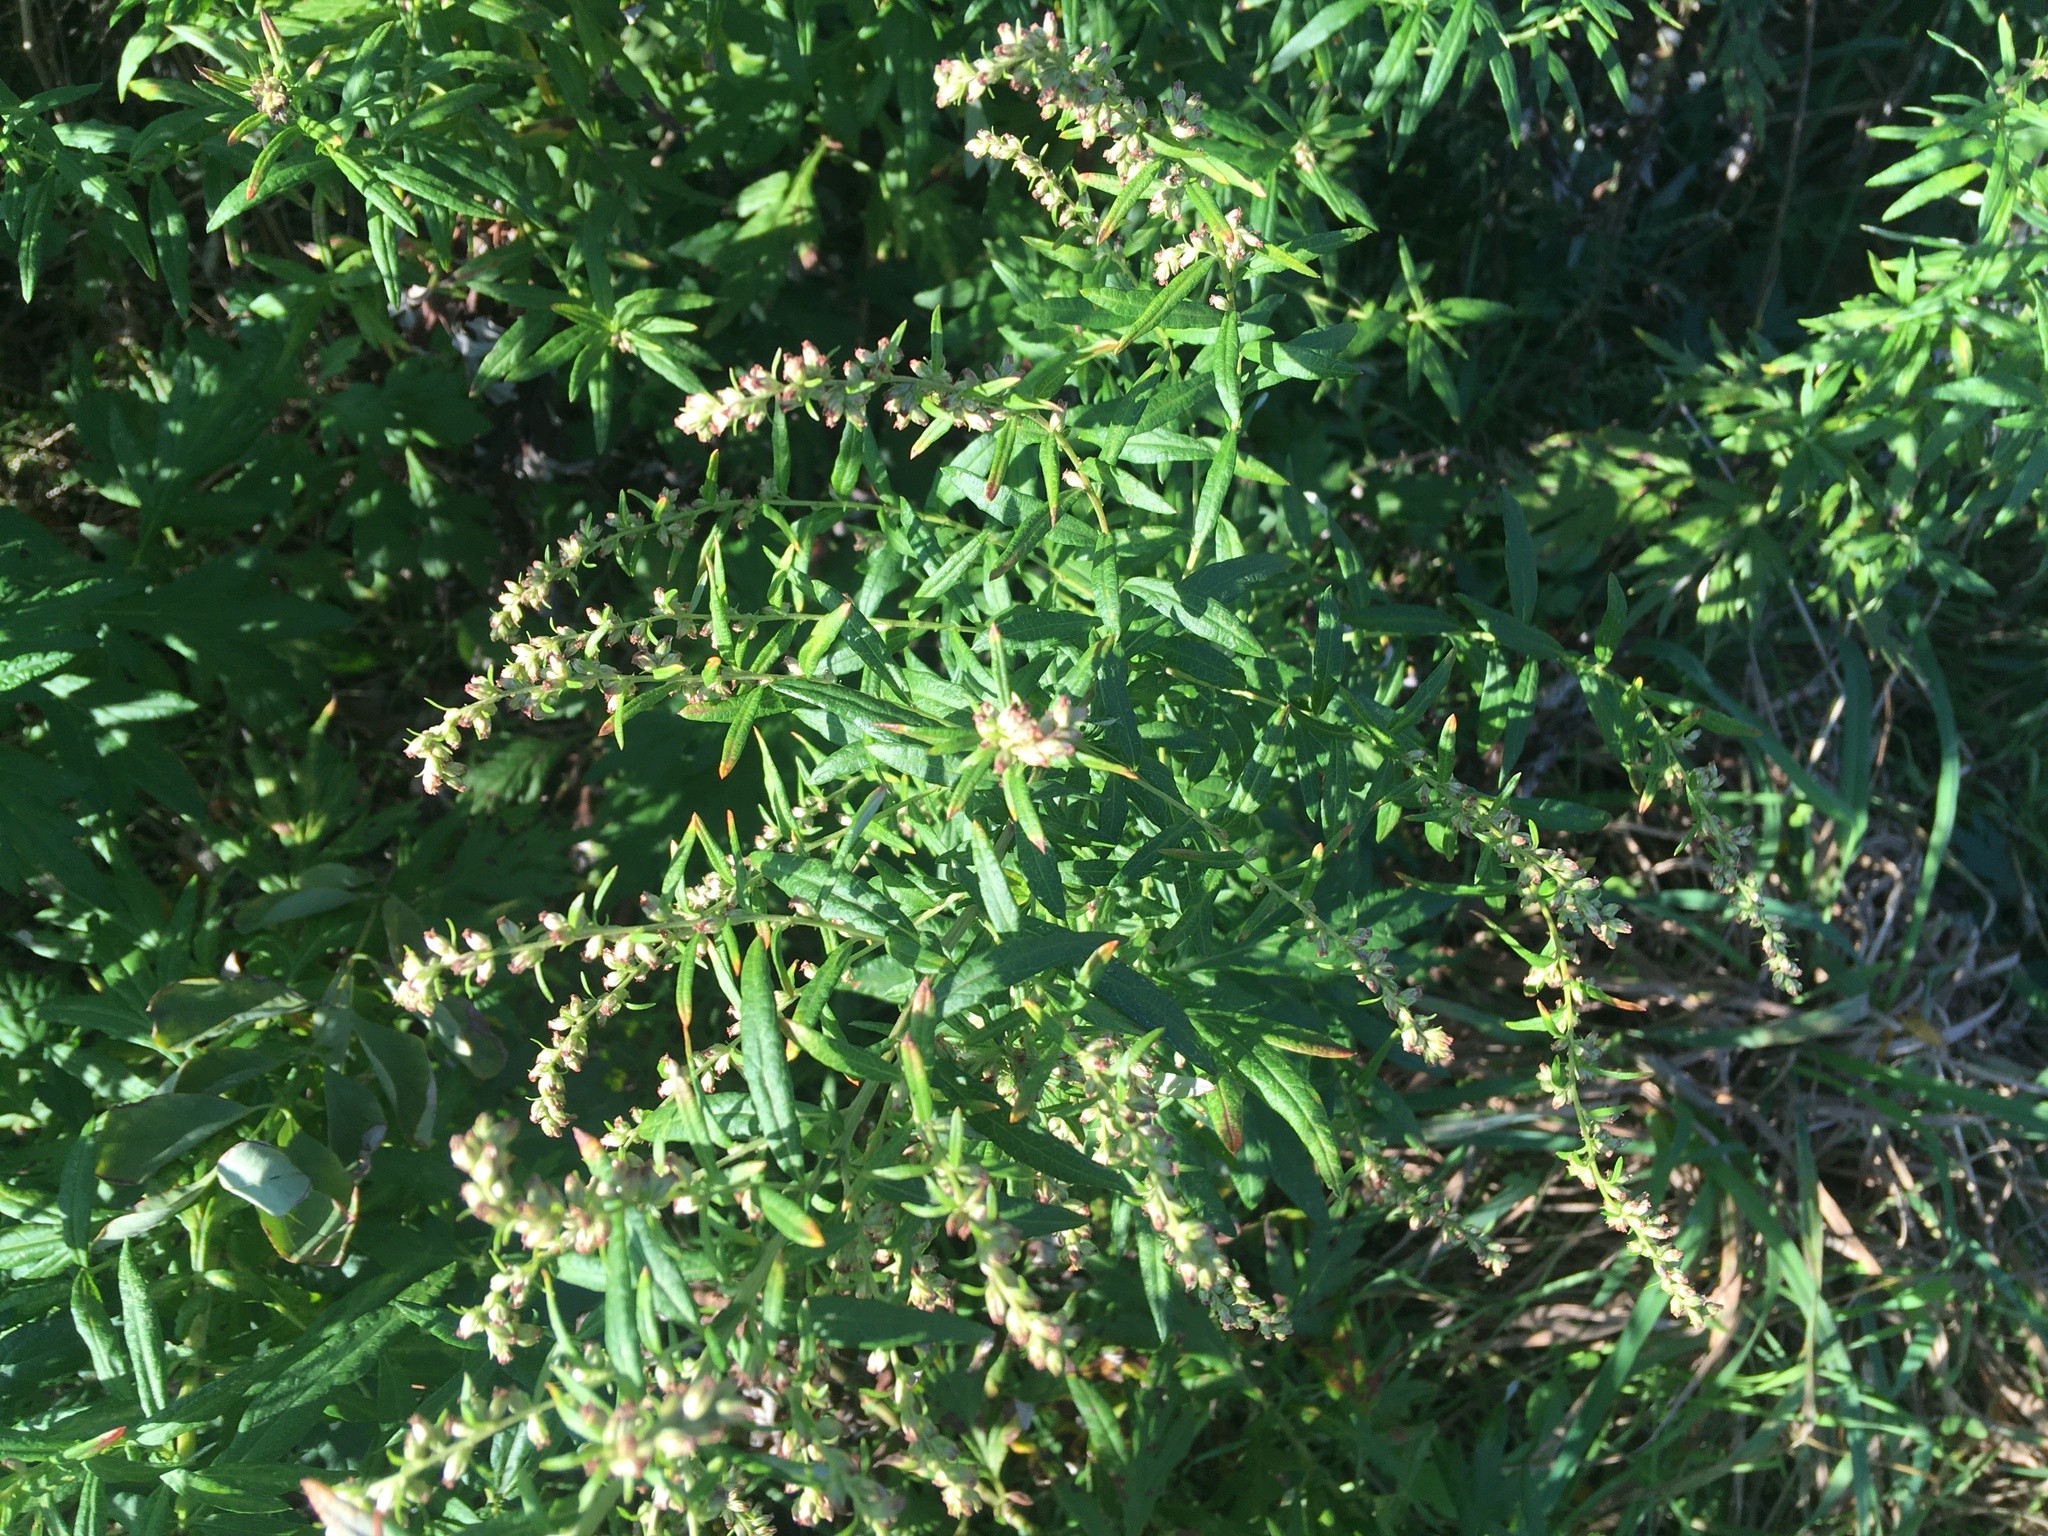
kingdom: Plantae
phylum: Tracheophyta
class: Magnoliopsida
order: Asterales
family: Asteraceae
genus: Artemisia
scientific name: Artemisia vulgaris
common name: Mugwort
